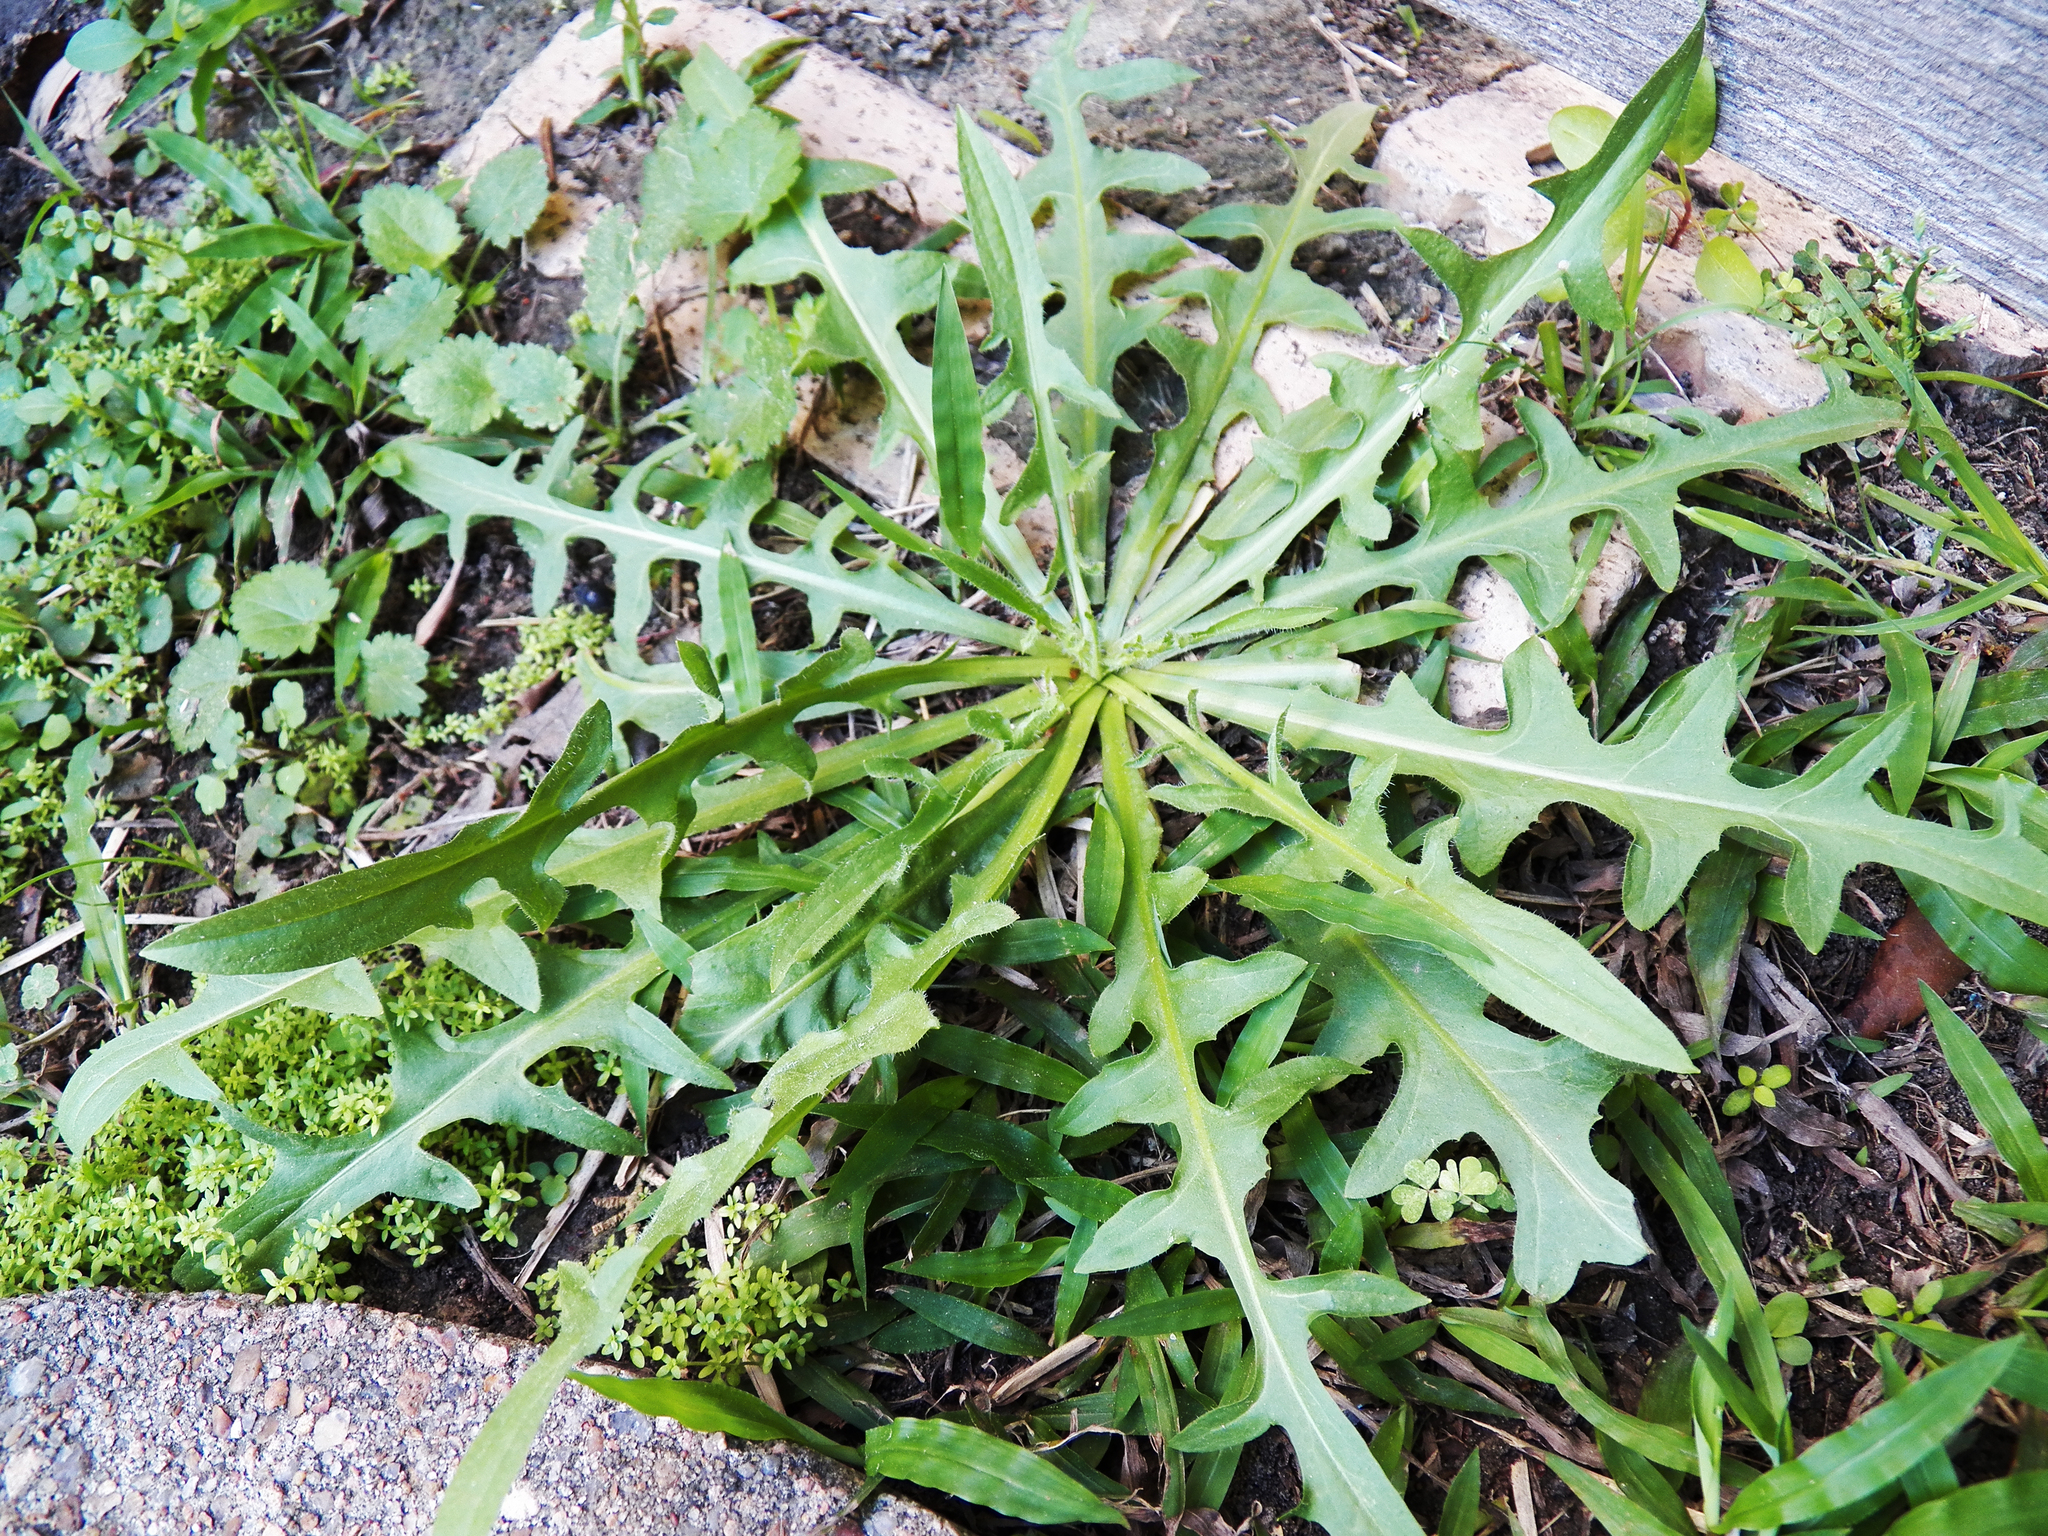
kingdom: Plantae
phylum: Tracheophyta
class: Magnoliopsida
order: Asterales
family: Asteraceae
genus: Taraxacum
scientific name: Taraxacum officinale
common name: Common dandelion
